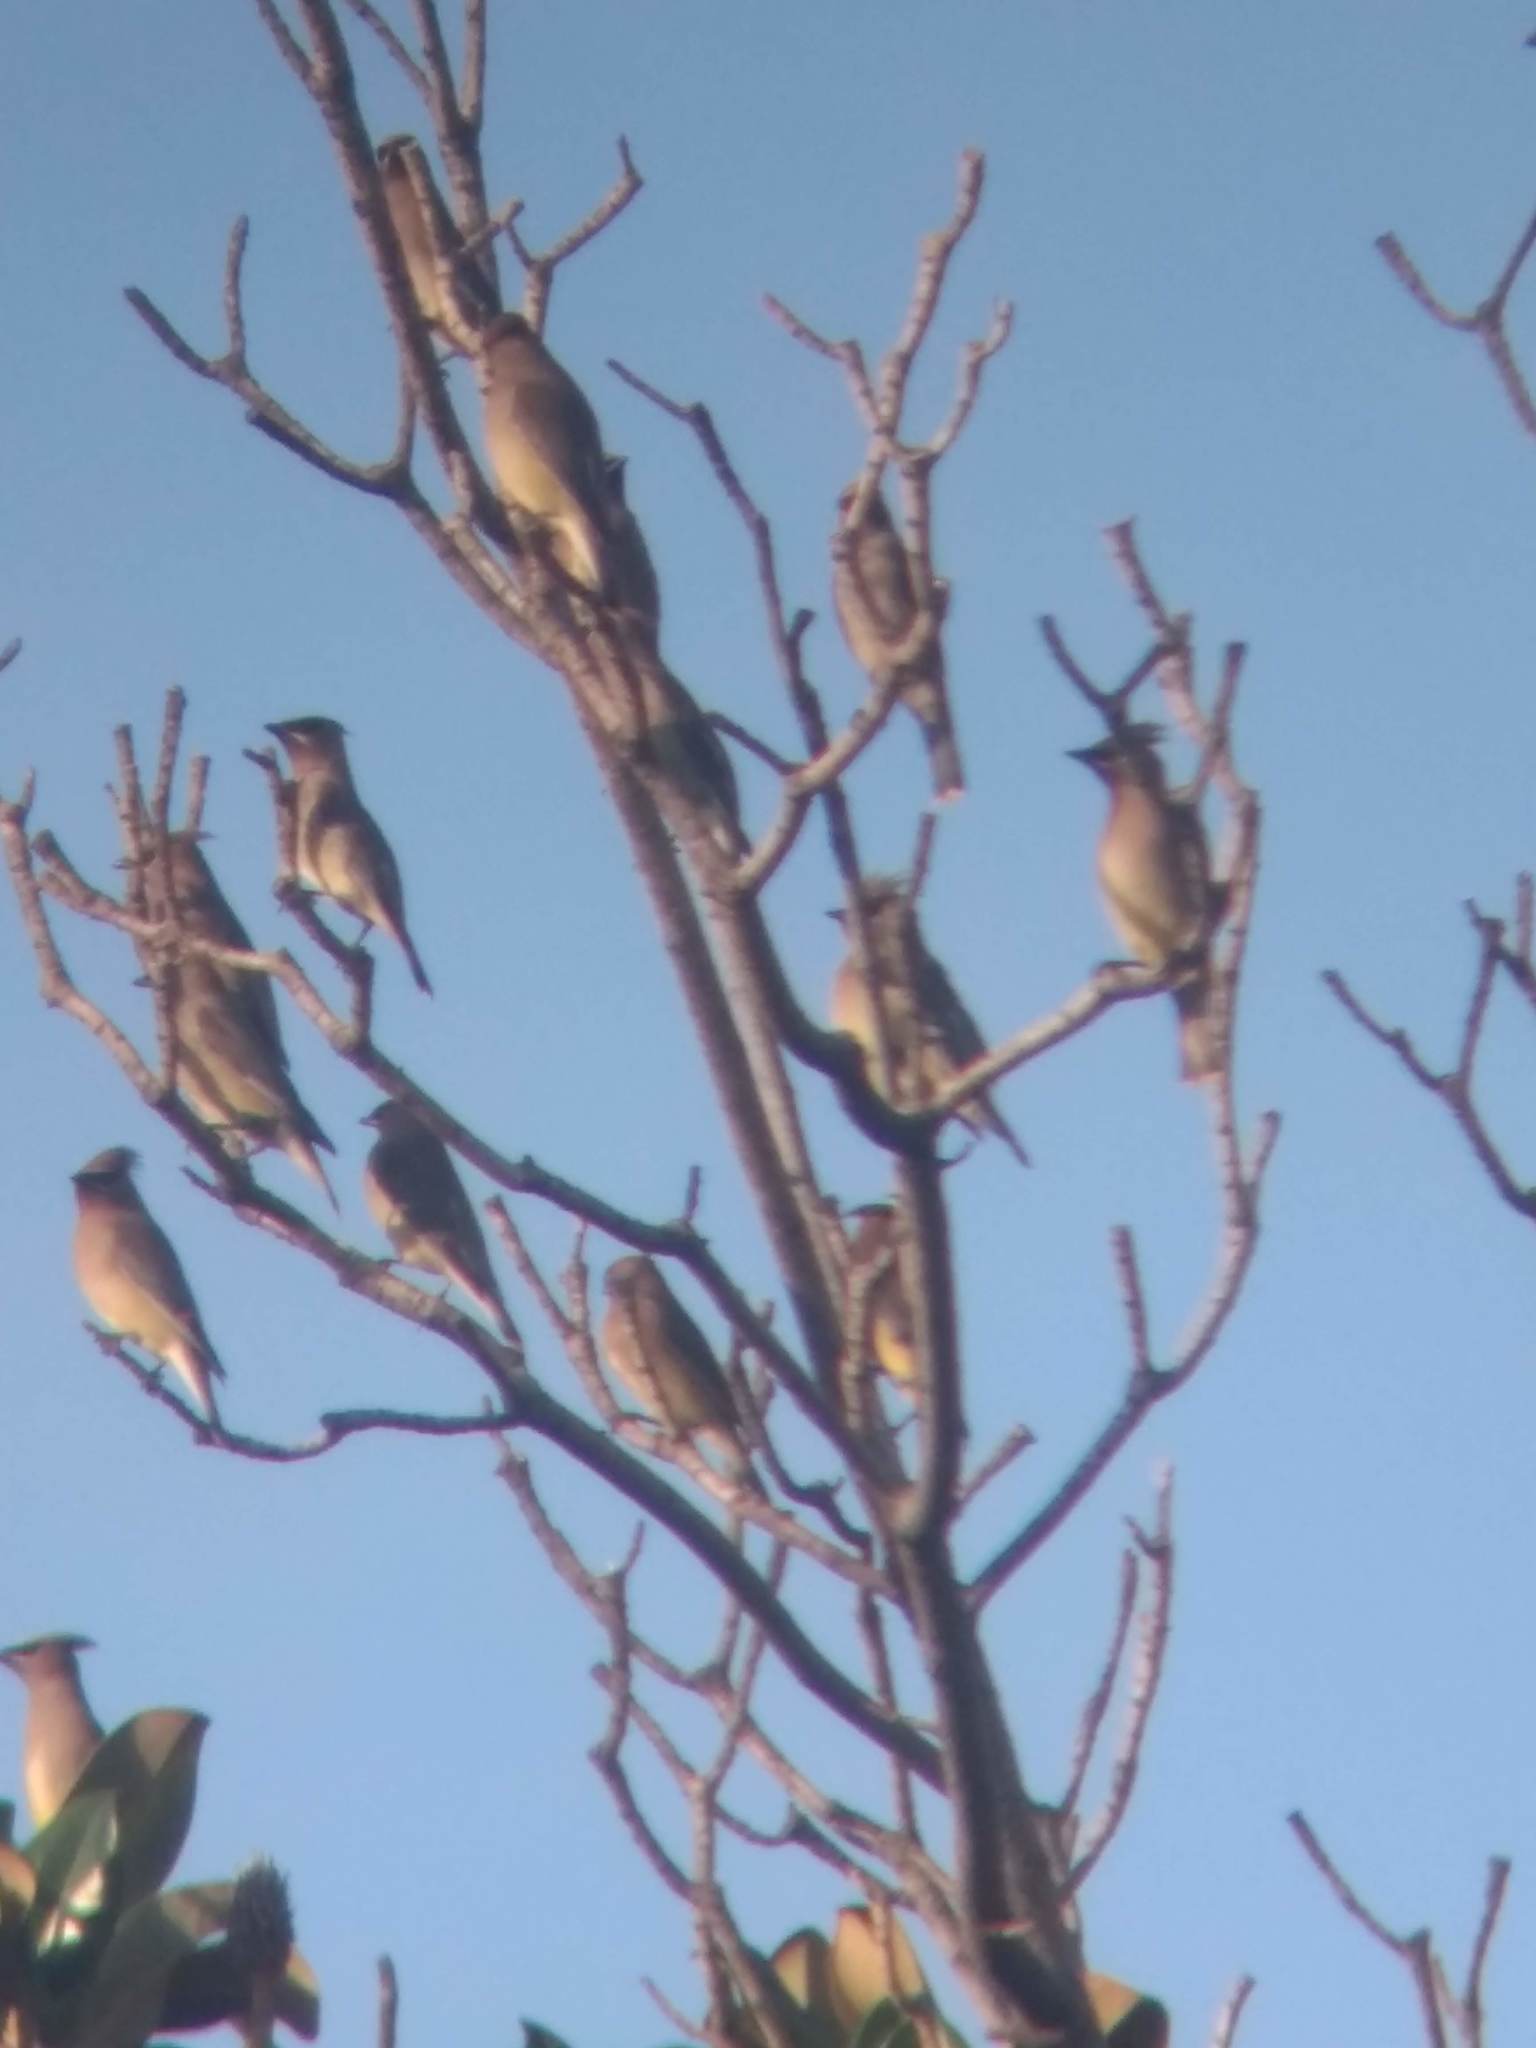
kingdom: Animalia
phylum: Chordata
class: Aves
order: Passeriformes
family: Bombycillidae
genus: Bombycilla
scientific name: Bombycilla cedrorum
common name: Cedar waxwing
